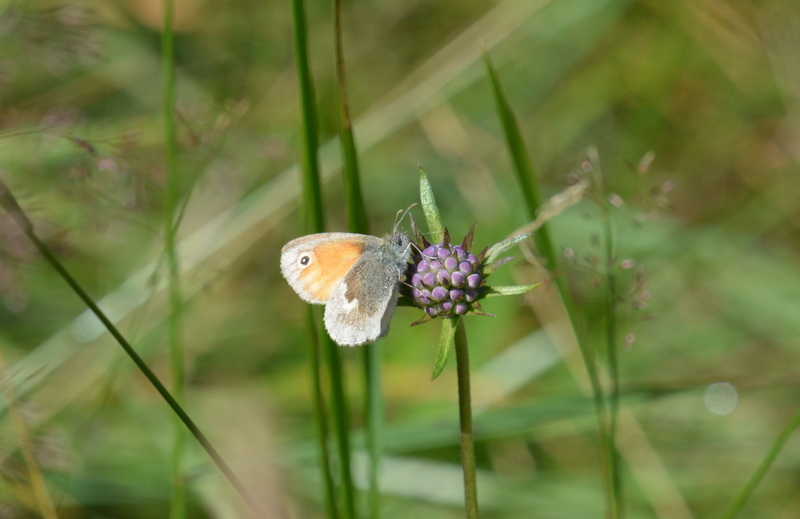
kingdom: Animalia
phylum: Arthropoda
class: Insecta
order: Lepidoptera
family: Nymphalidae
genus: Coenonympha
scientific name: Coenonympha pamphilus
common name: Small heath
